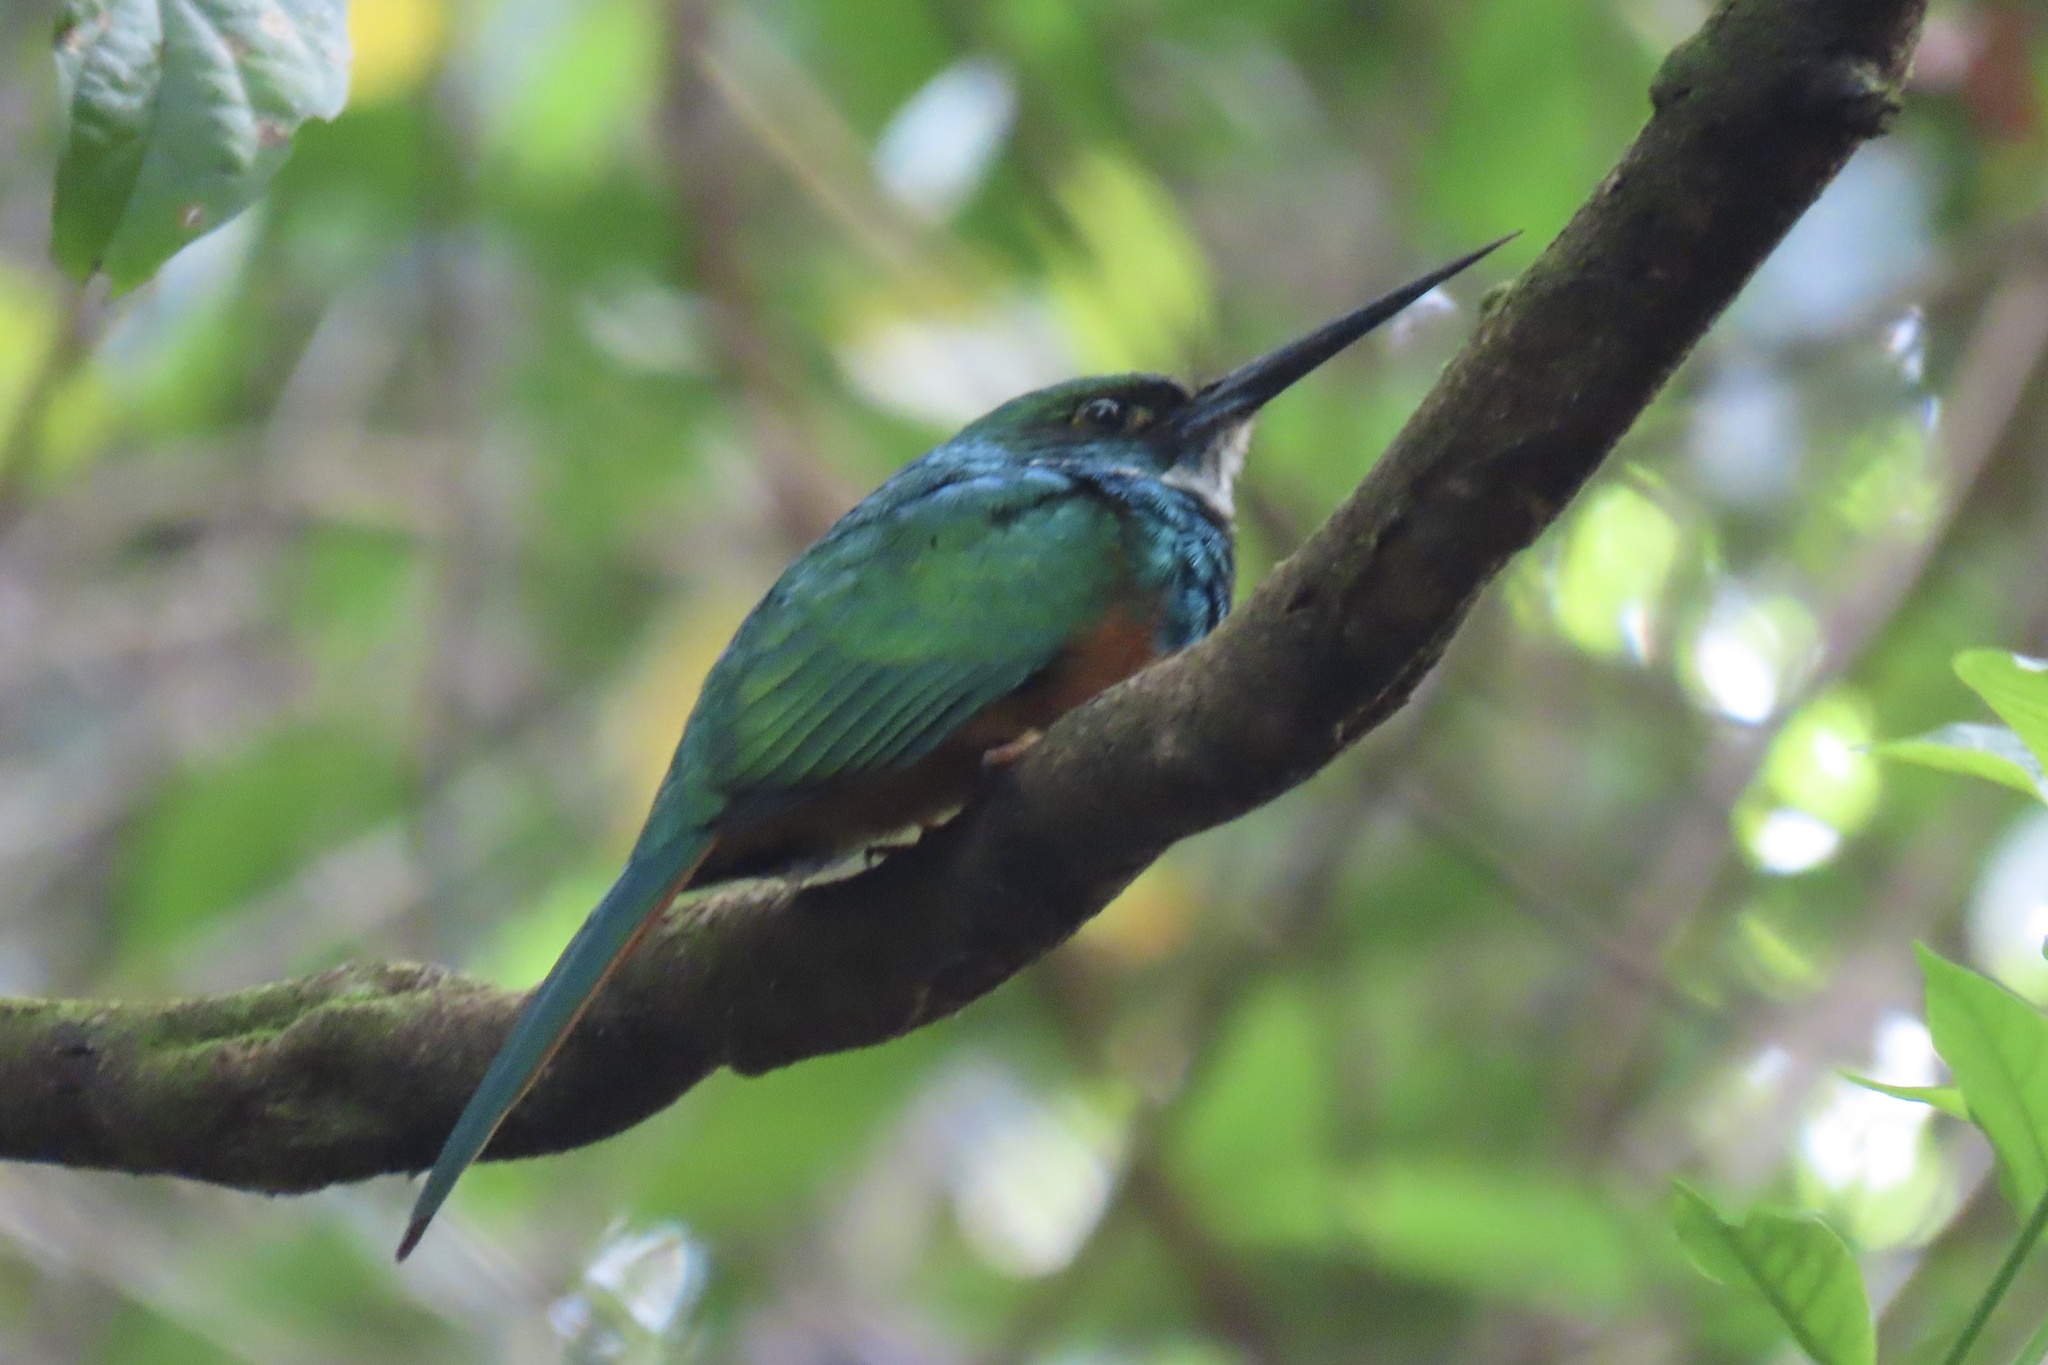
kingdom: Animalia
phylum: Chordata
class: Aves
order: Piciformes
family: Galbulidae
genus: Galbula
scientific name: Galbula ruficauda
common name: Rufous-tailed jacamar
